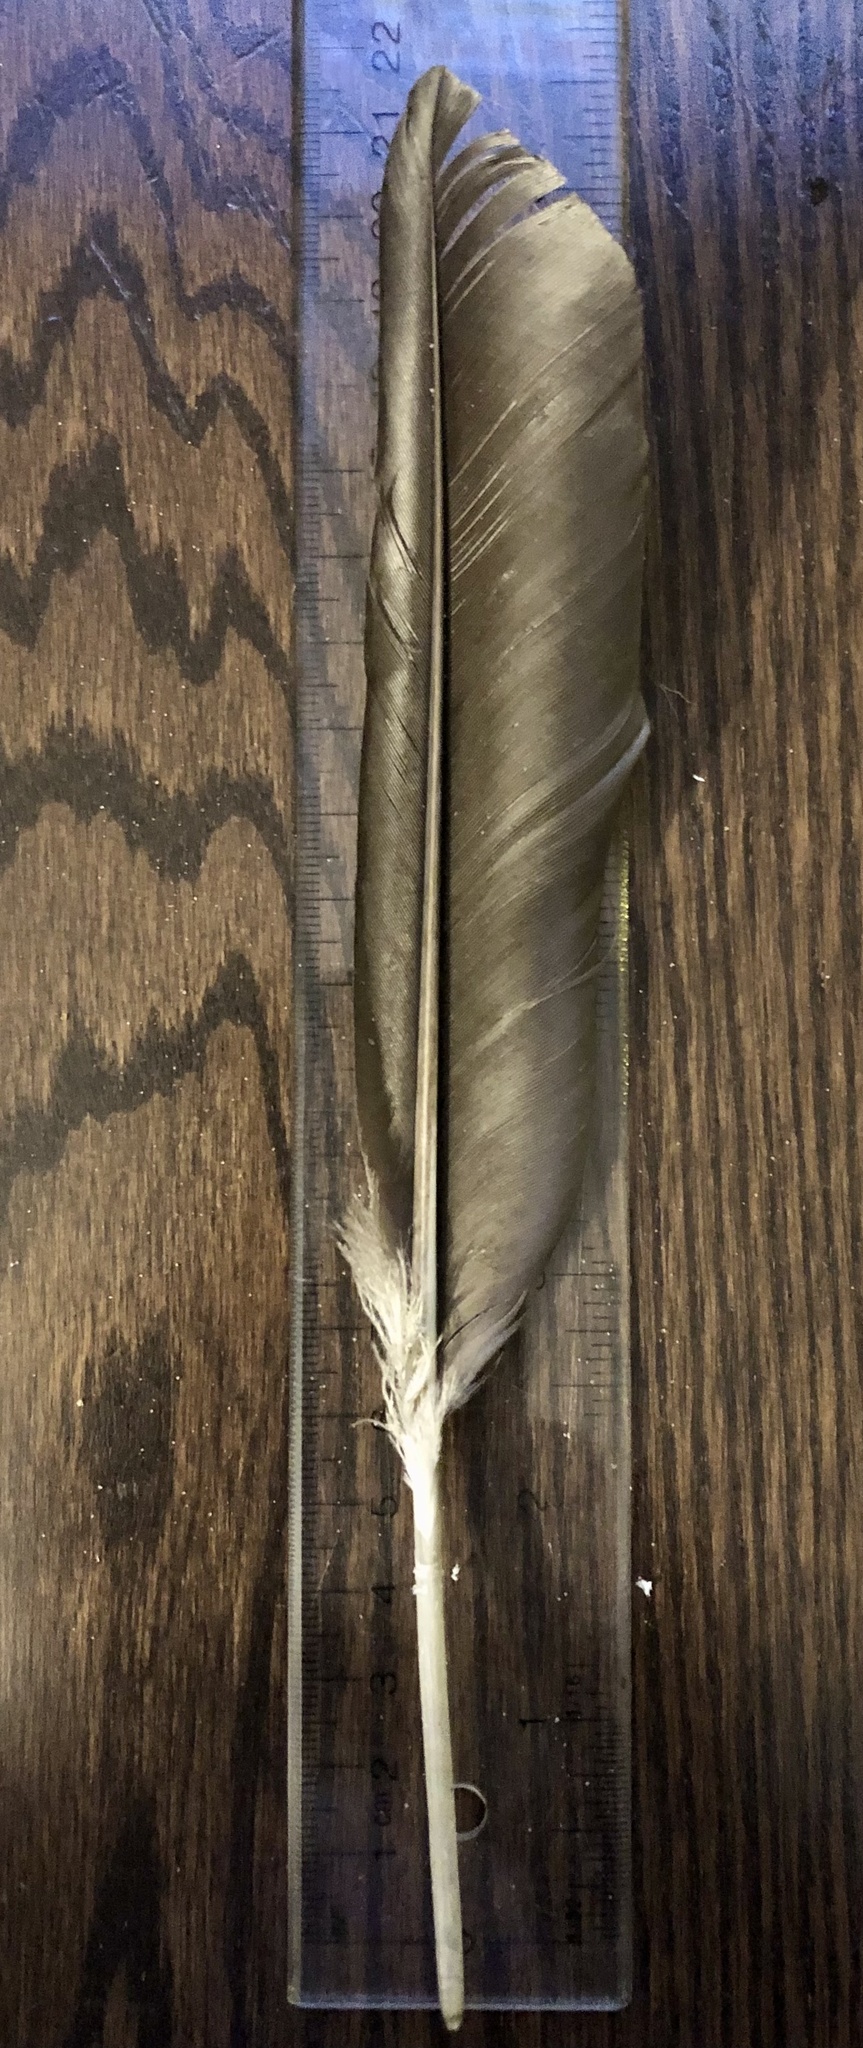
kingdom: Animalia
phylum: Chordata
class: Aves
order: Suliformes
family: Phalacrocoracidae
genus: Phalacrocorax
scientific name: Phalacrocorax auritus
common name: Double-crested cormorant
